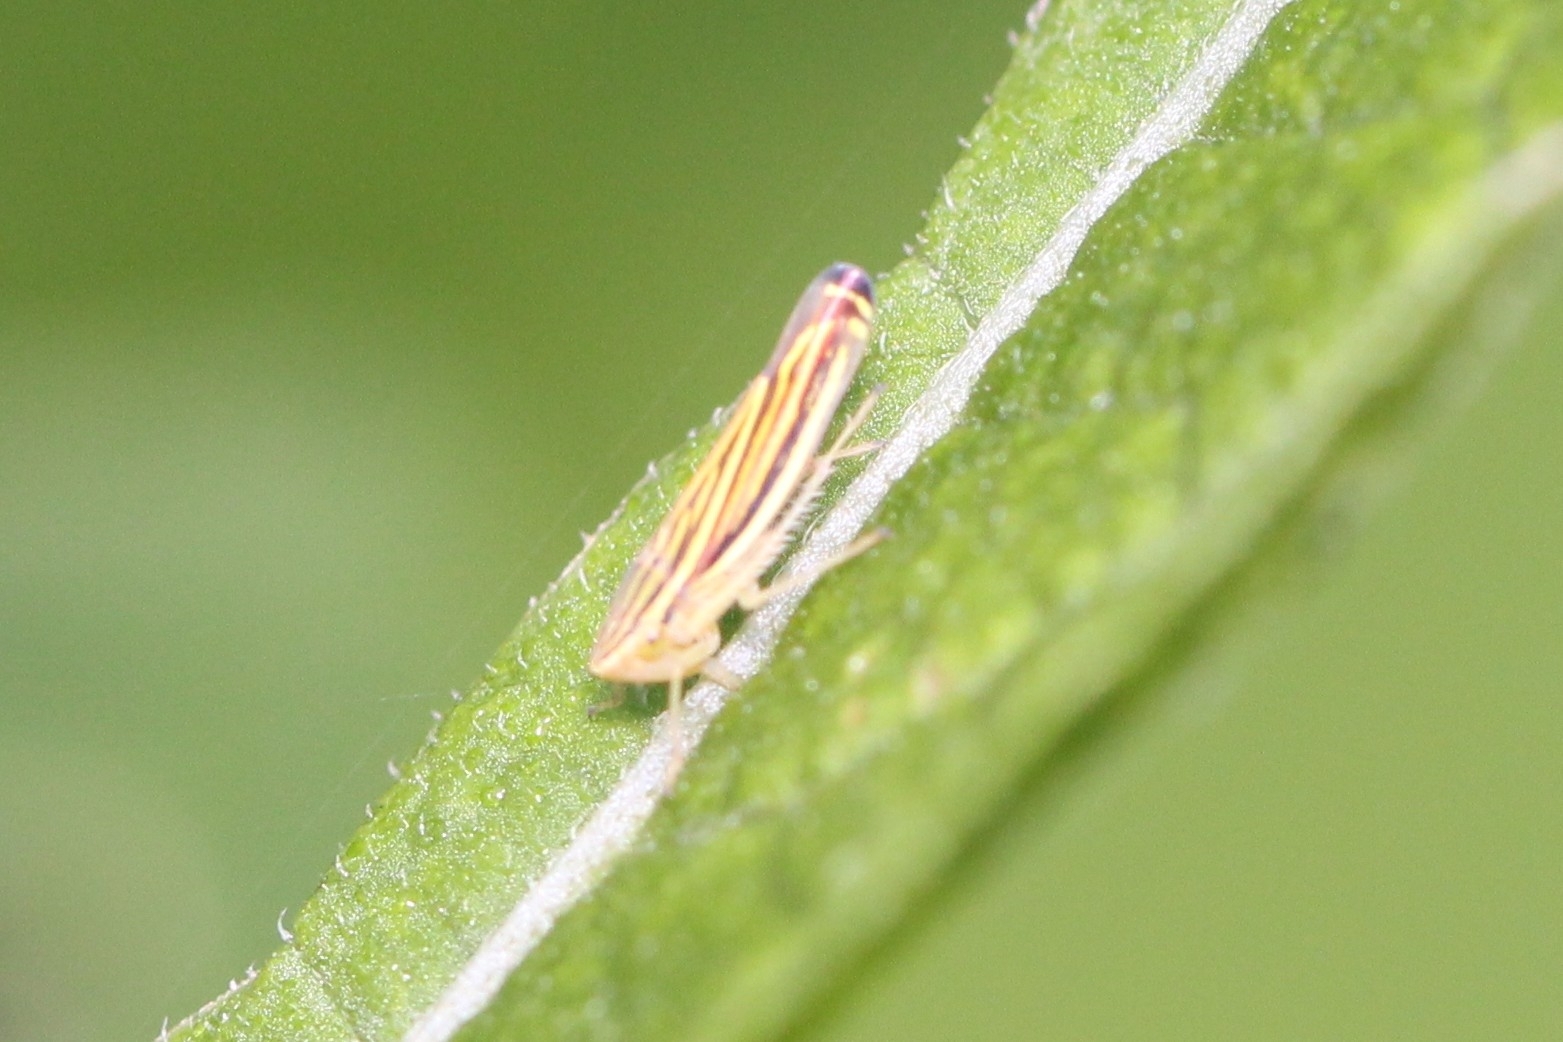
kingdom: Animalia
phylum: Arthropoda
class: Insecta
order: Hemiptera
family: Cicadellidae
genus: Sibovia
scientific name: Sibovia occatoria
